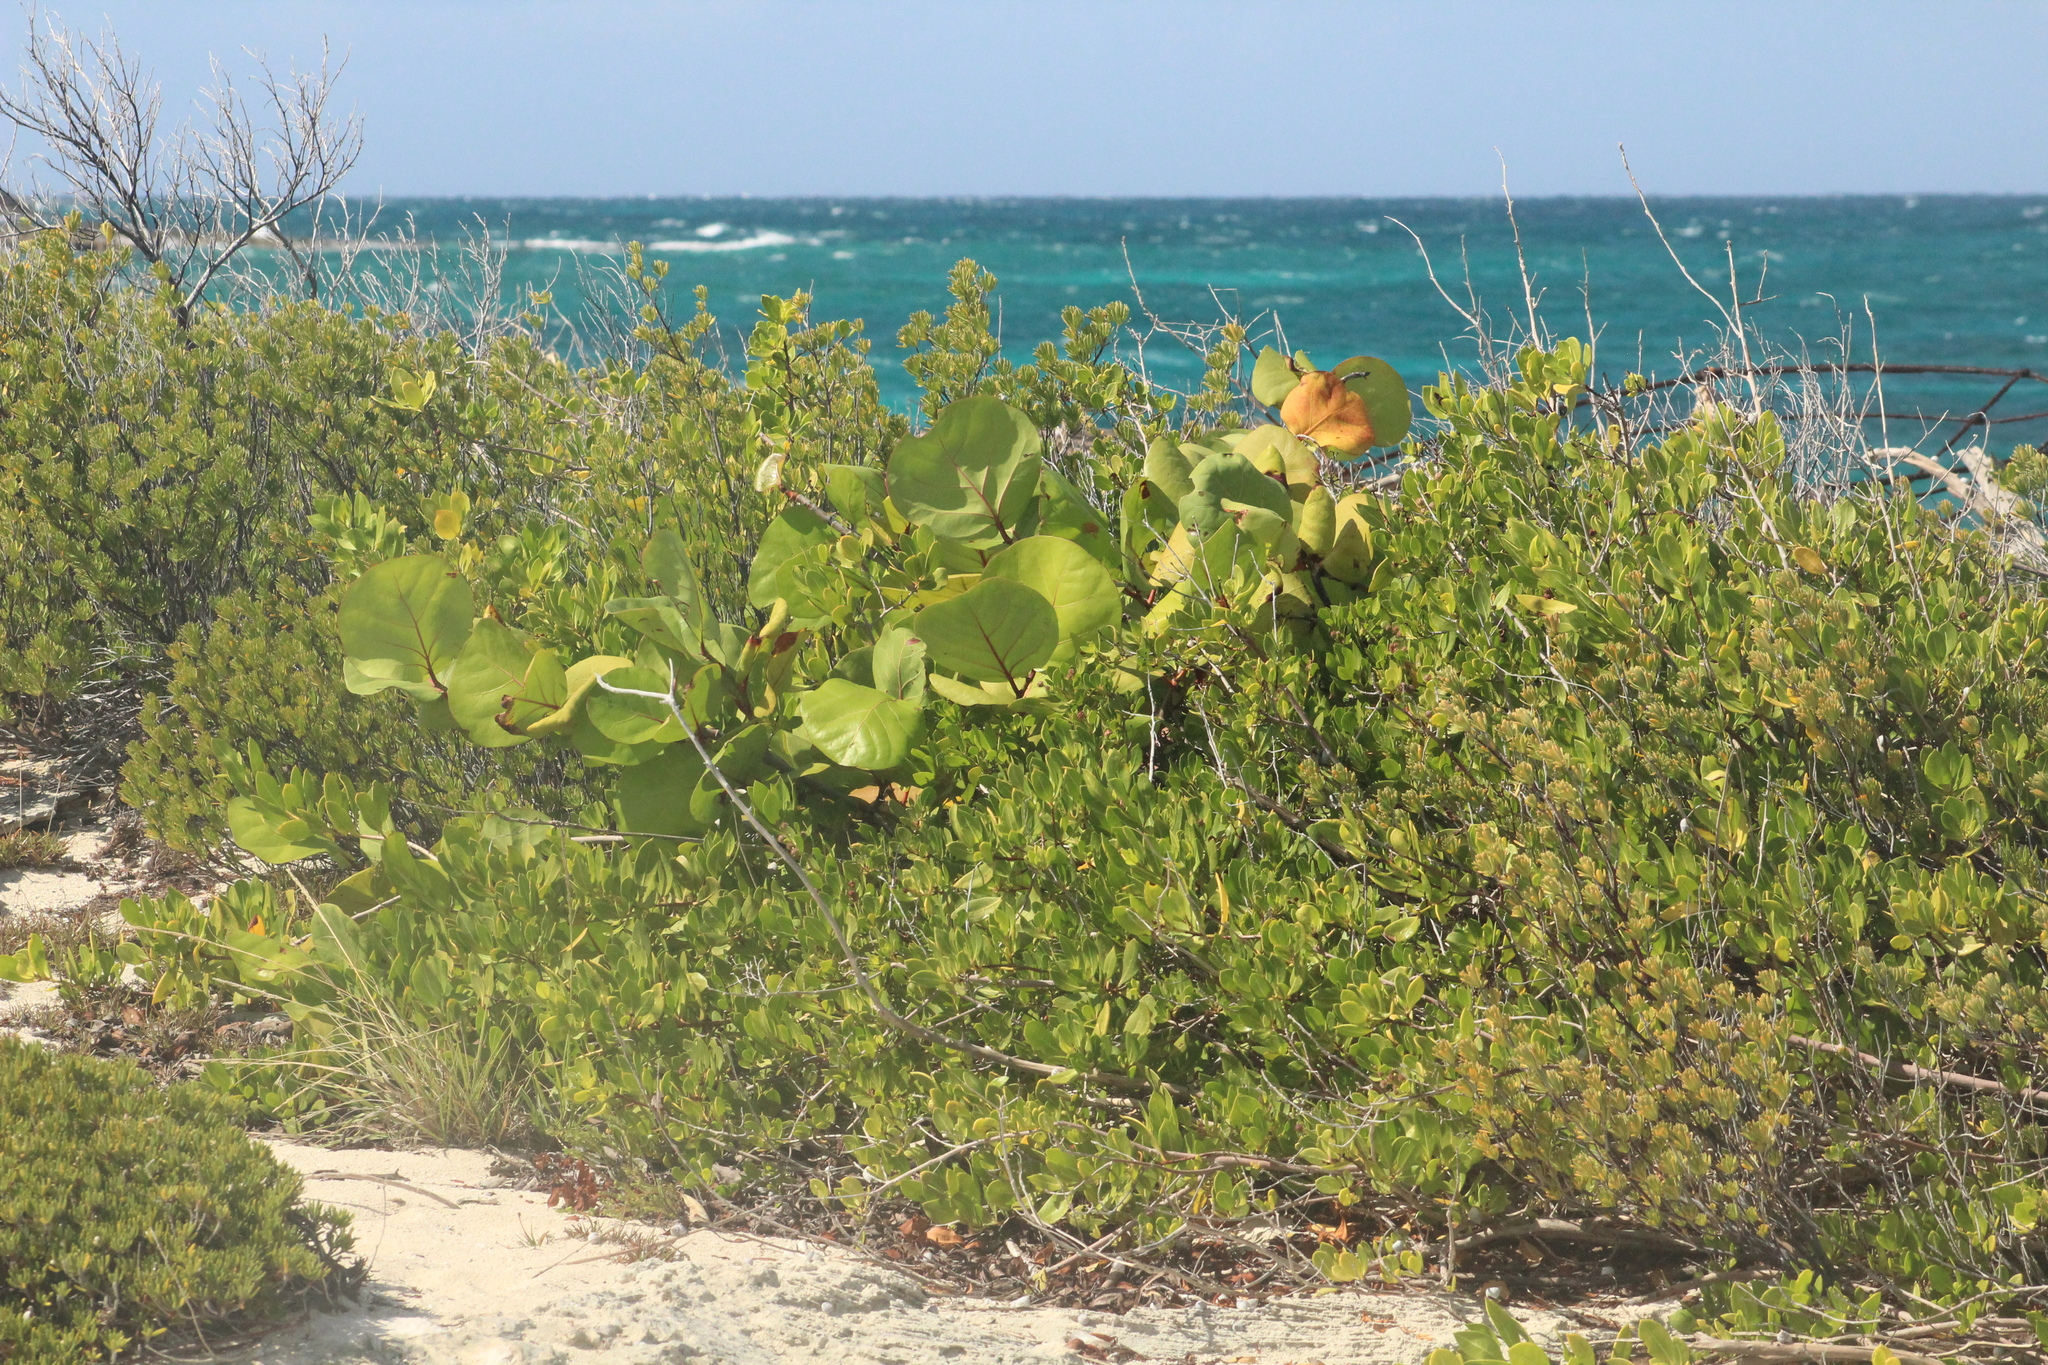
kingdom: Plantae
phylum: Tracheophyta
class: Magnoliopsida
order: Caryophyllales
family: Polygonaceae
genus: Coccoloba
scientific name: Coccoloba uvifera
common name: Seagrape
